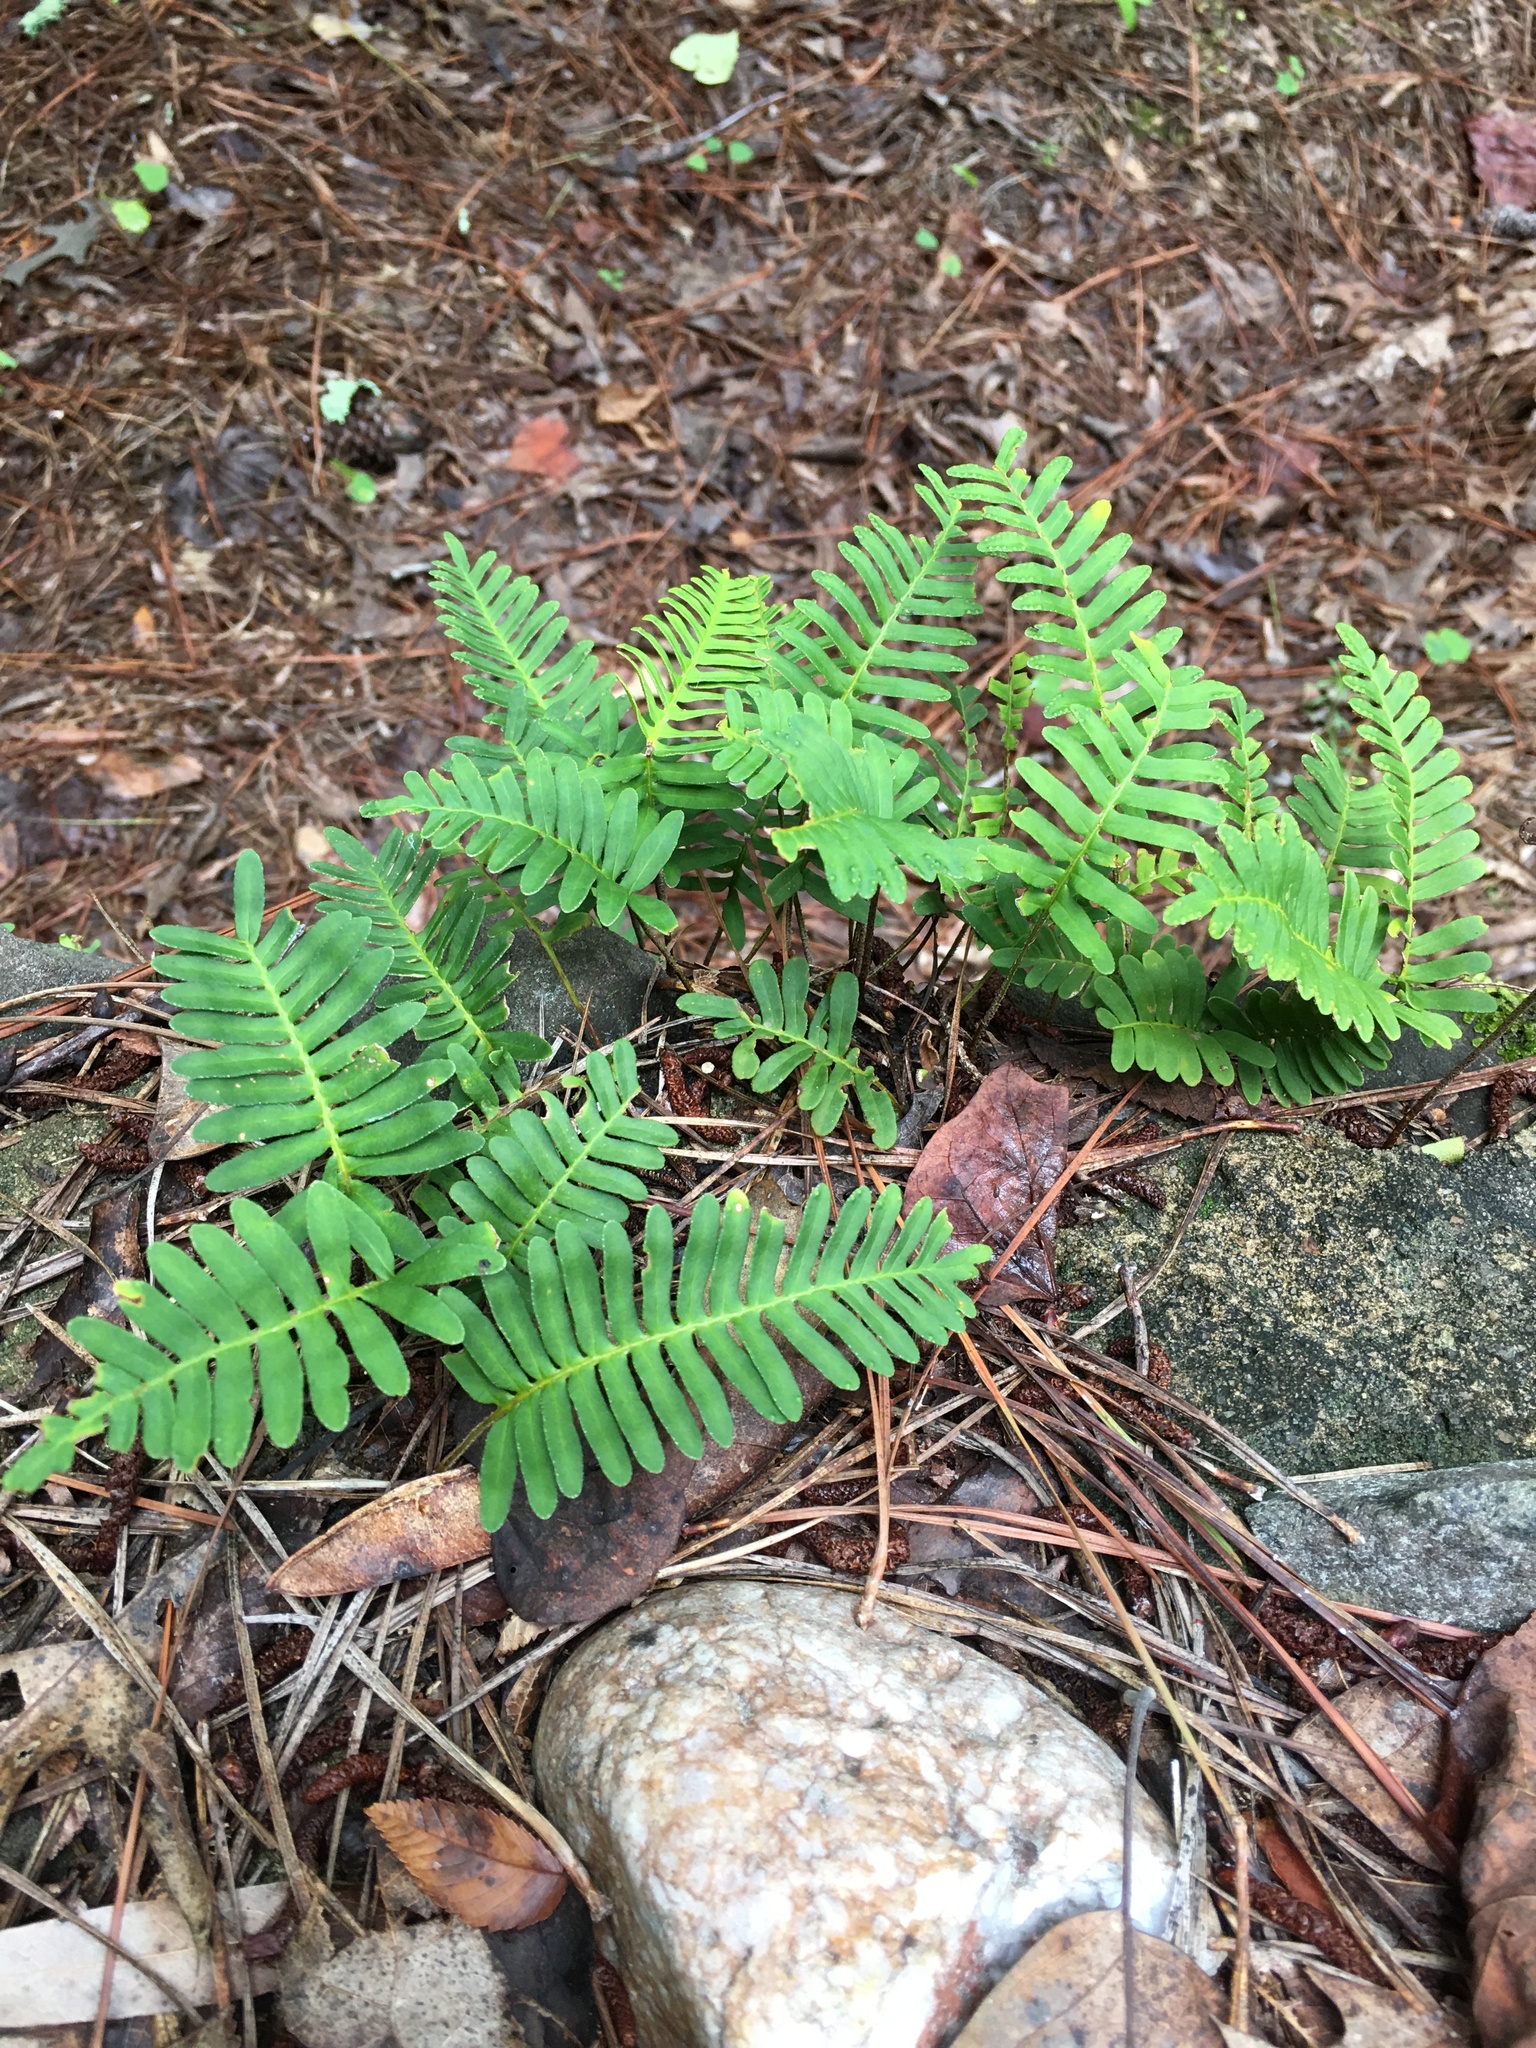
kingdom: Plantae
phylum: Tracheophyta
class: Polypodiopsida
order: Polypodiales
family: Polypodiaceae
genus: Pleopeltis
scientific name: Pleopeltis michauxiana
